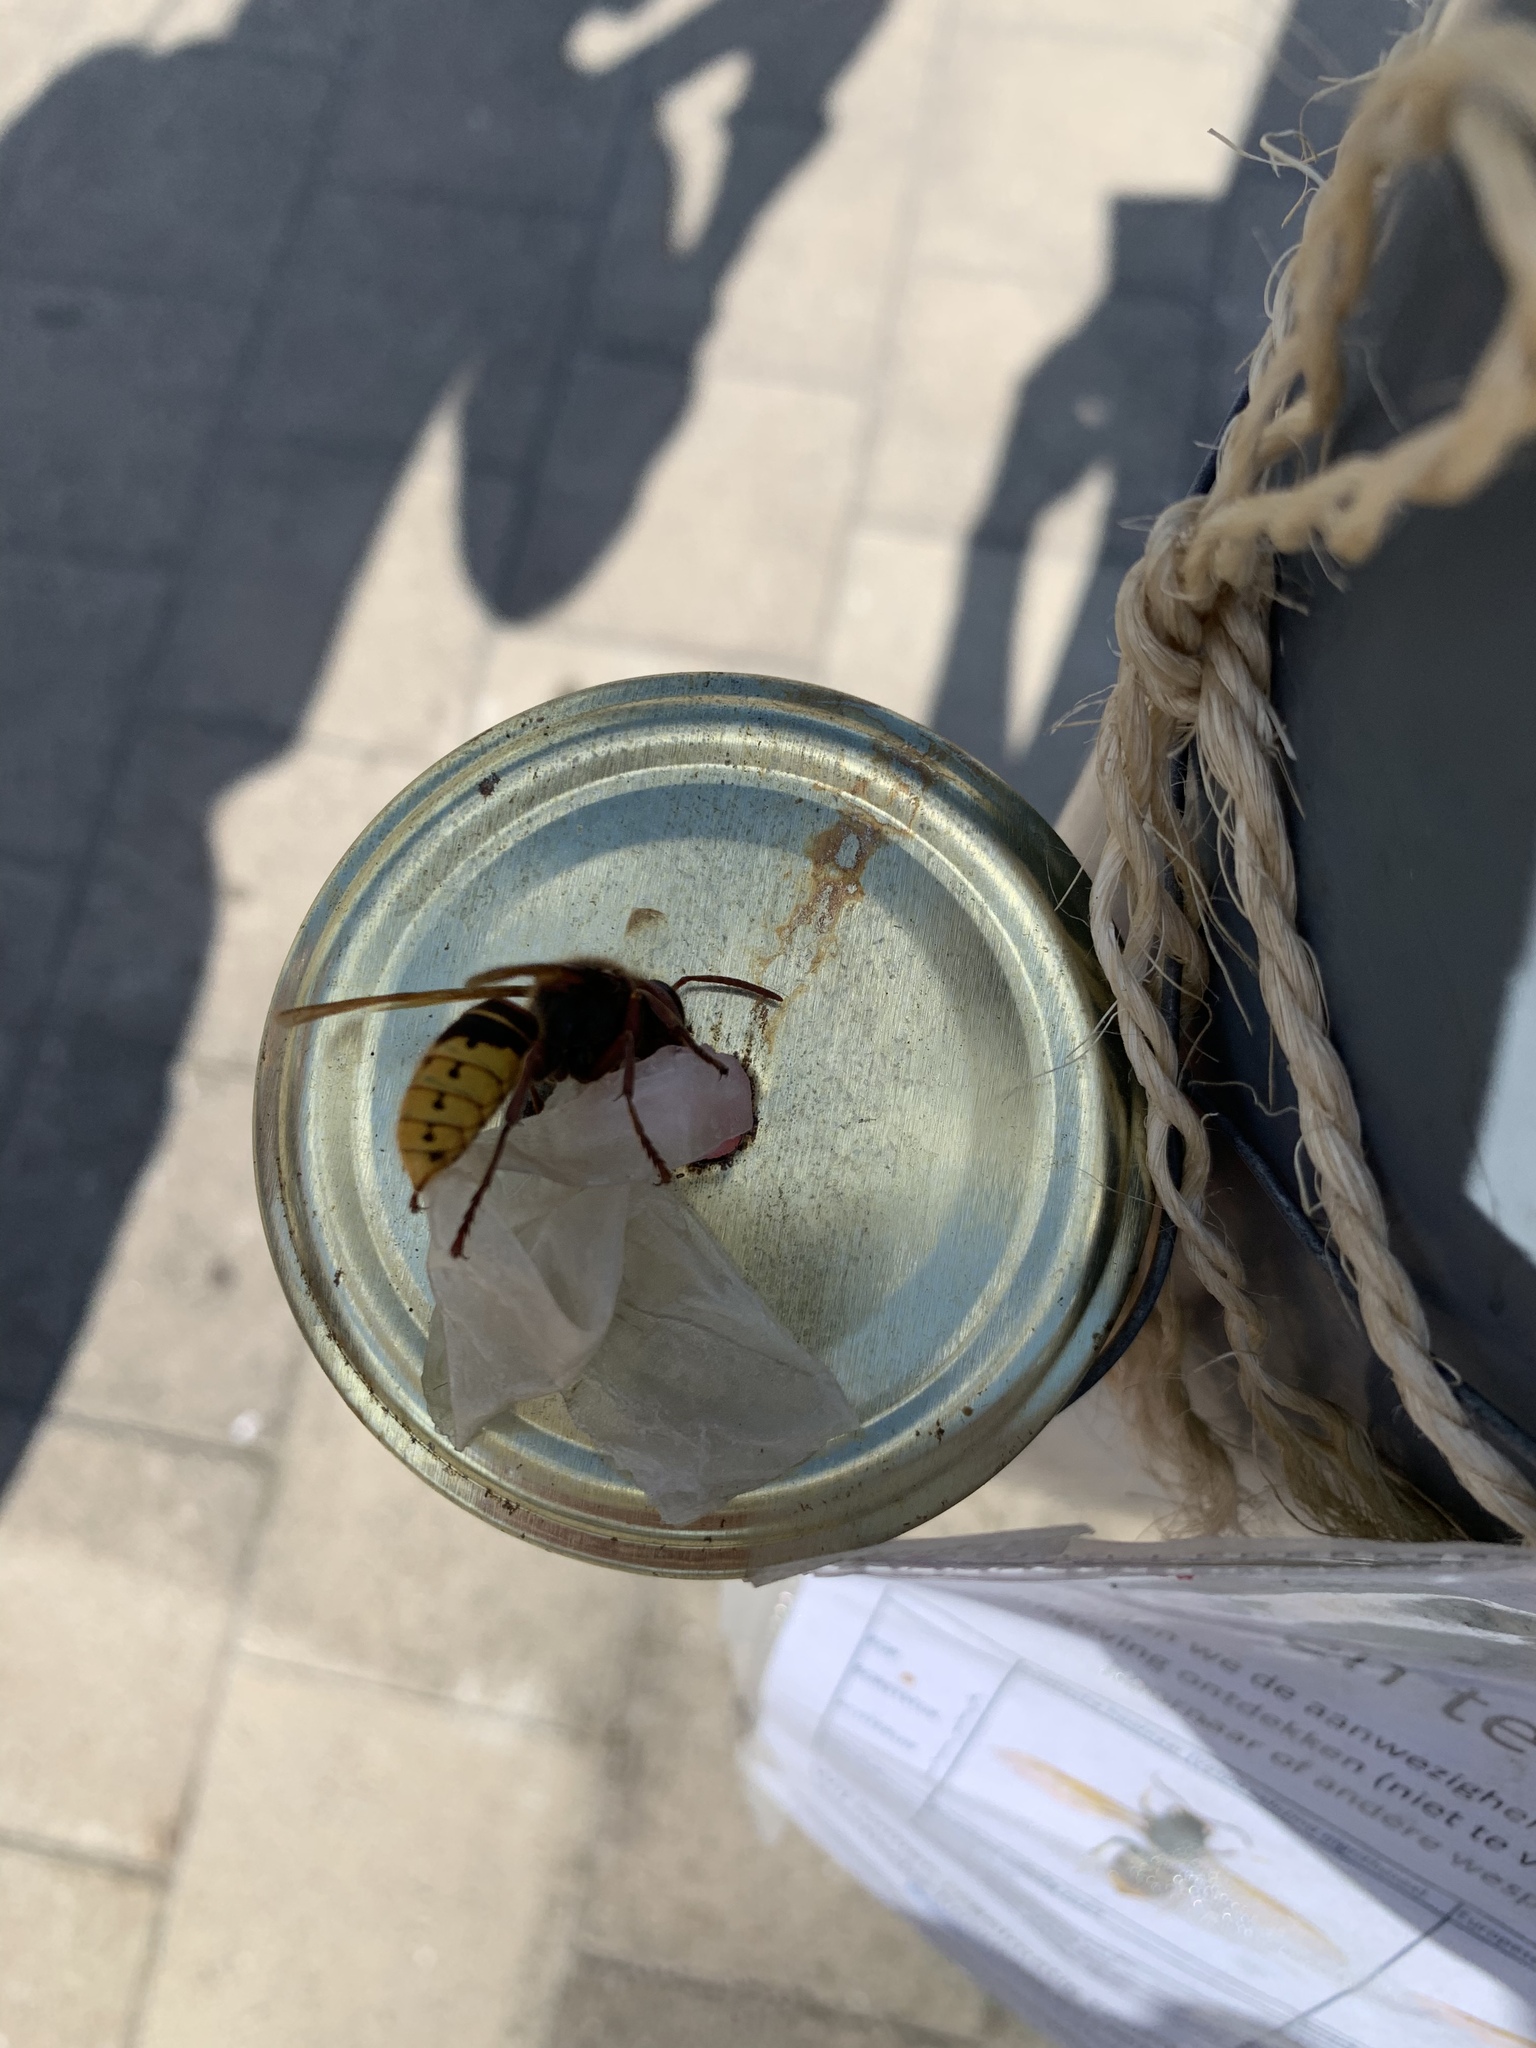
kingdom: Animalia
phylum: Arthropoda
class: Insecta
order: Hymenoptera
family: Vespidae
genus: Vespa
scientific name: Vespa crabro
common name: Hornet
